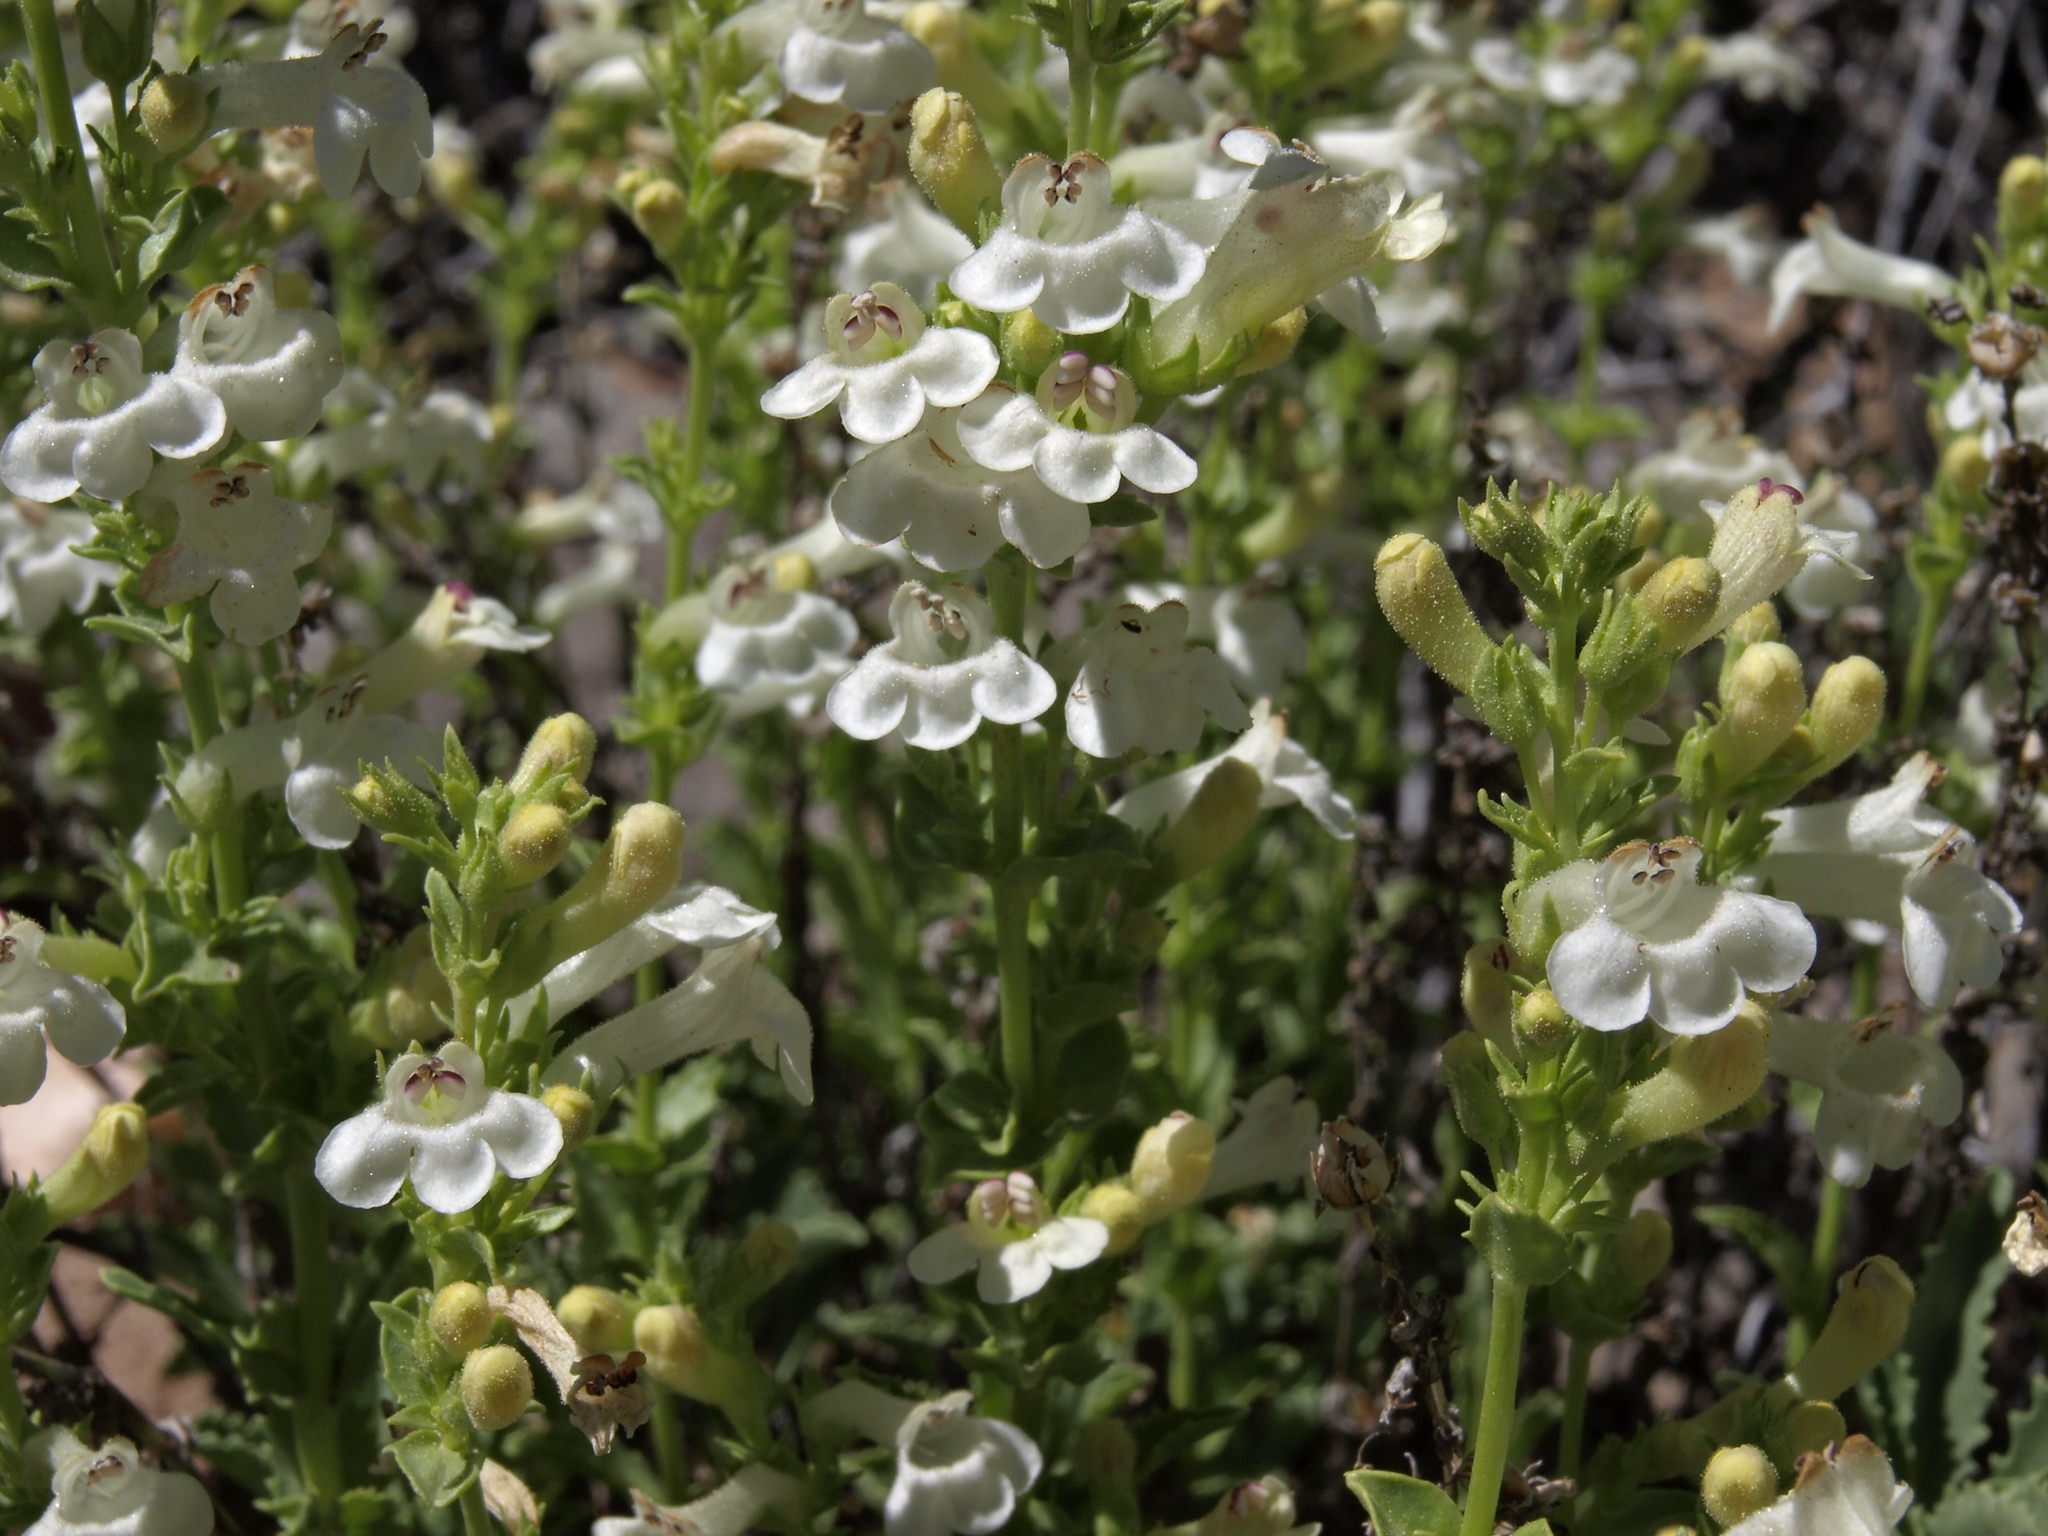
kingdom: Plantae
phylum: Tracheophyta
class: Magnoliopsida
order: Lamiales
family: Plantaginaceae
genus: Penstemon
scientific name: Penstemon deustus
